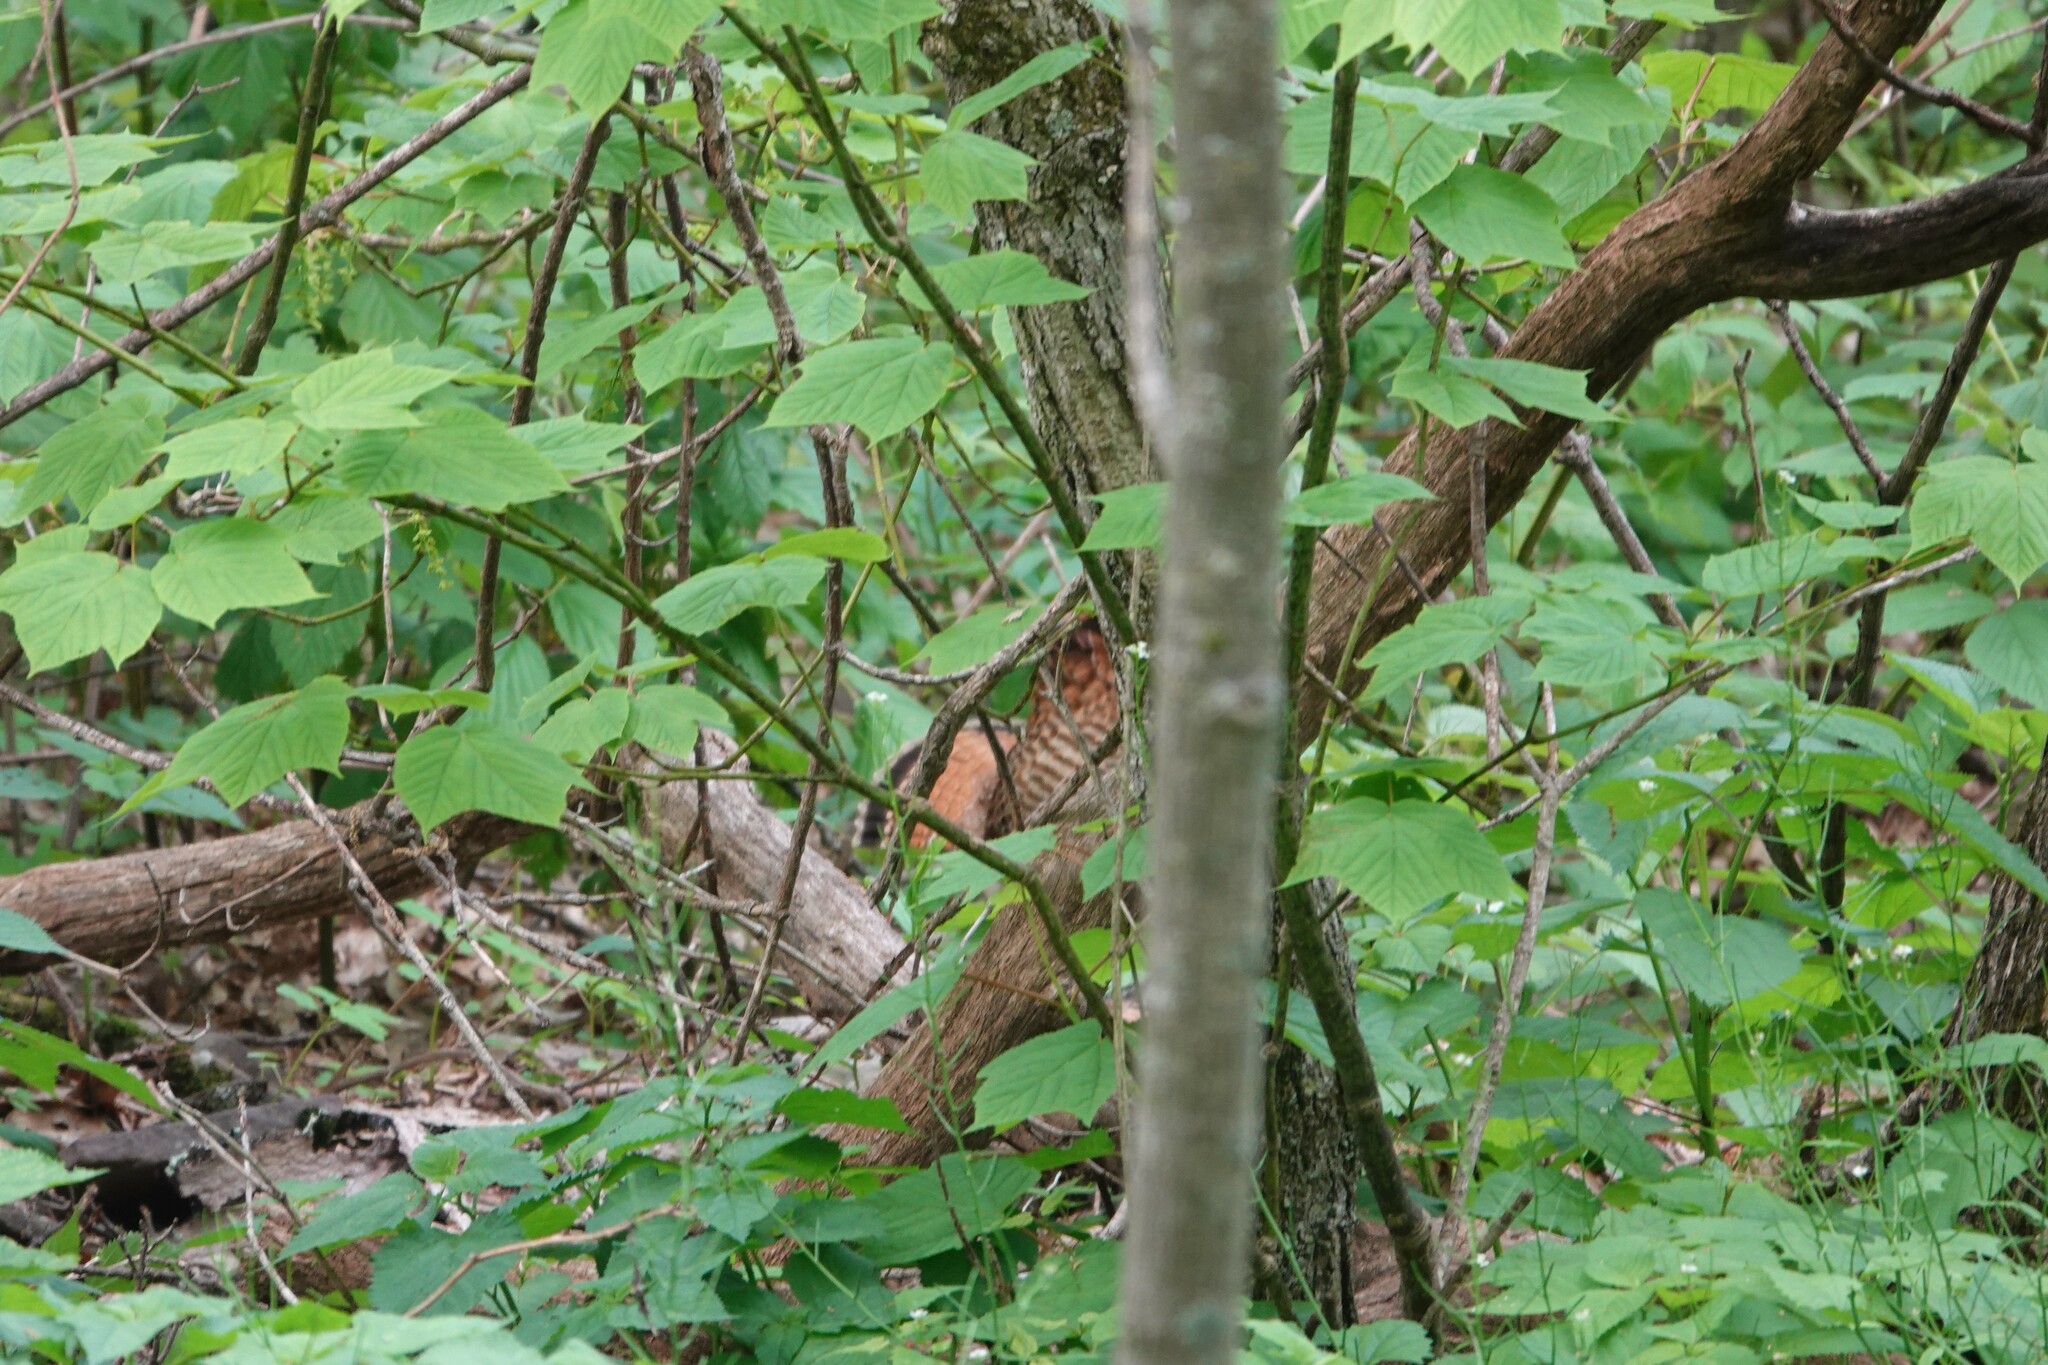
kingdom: Animalia
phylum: Chordata
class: Aves
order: Galliformes
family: Phasianidae
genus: Bonasa
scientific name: Bonasa umbellus
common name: Ruffed grouse
